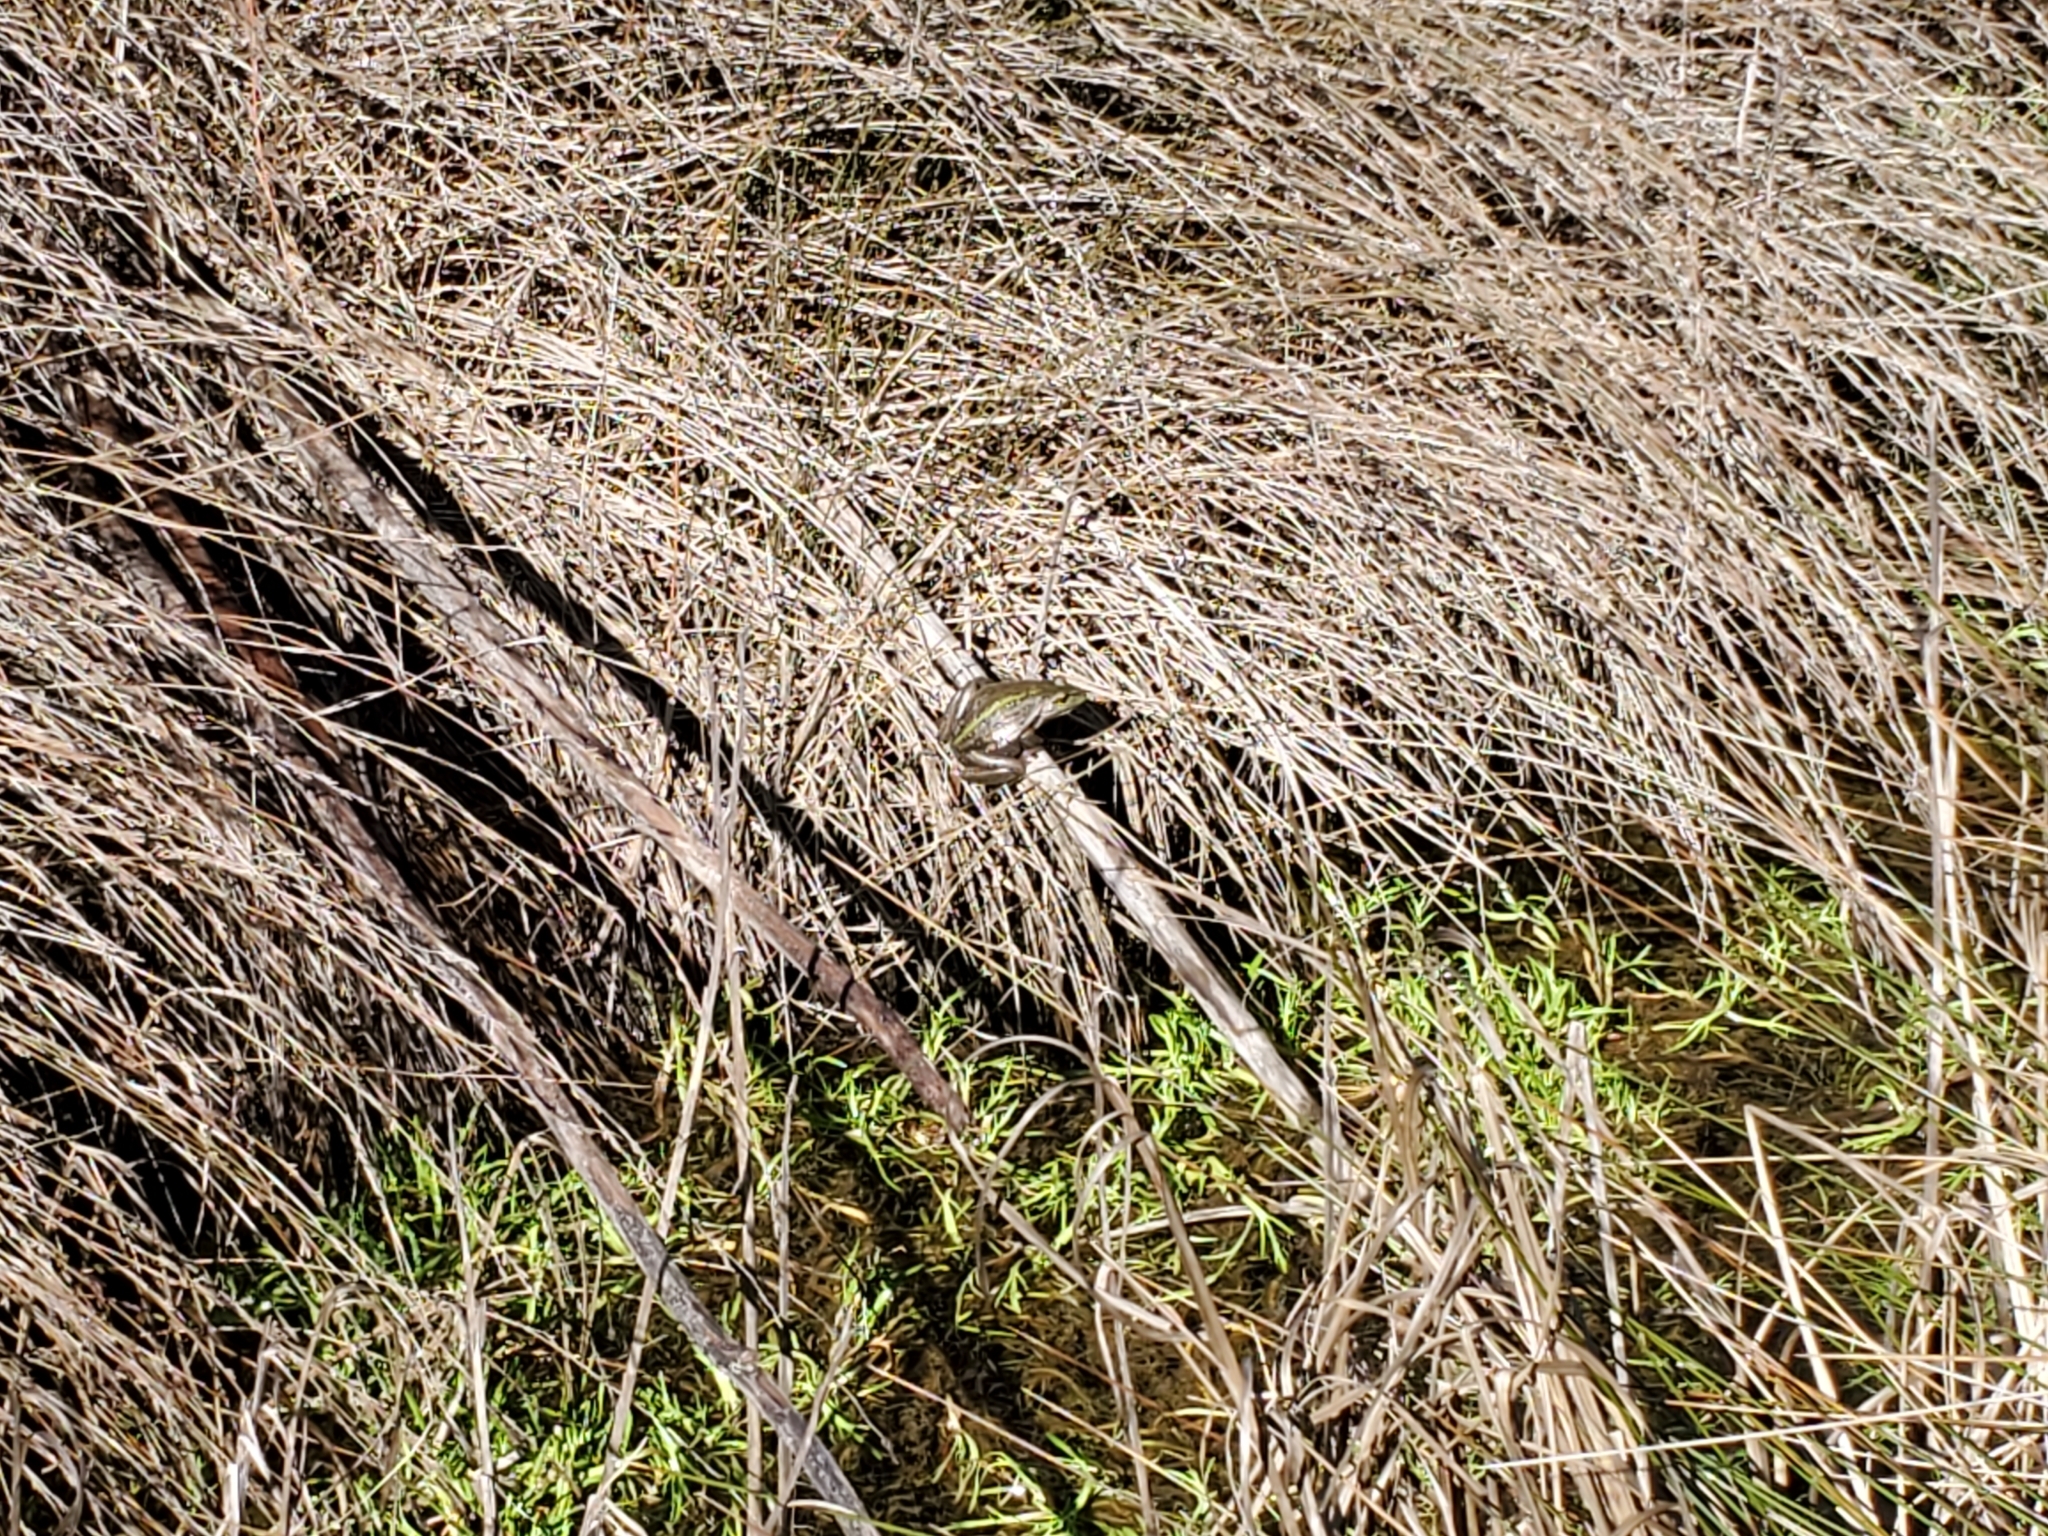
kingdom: Animalia
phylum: Chordata
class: Amphibia
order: Anura
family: Pelodryadidae
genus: Ranoidea
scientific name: Ranoidea raniformis
